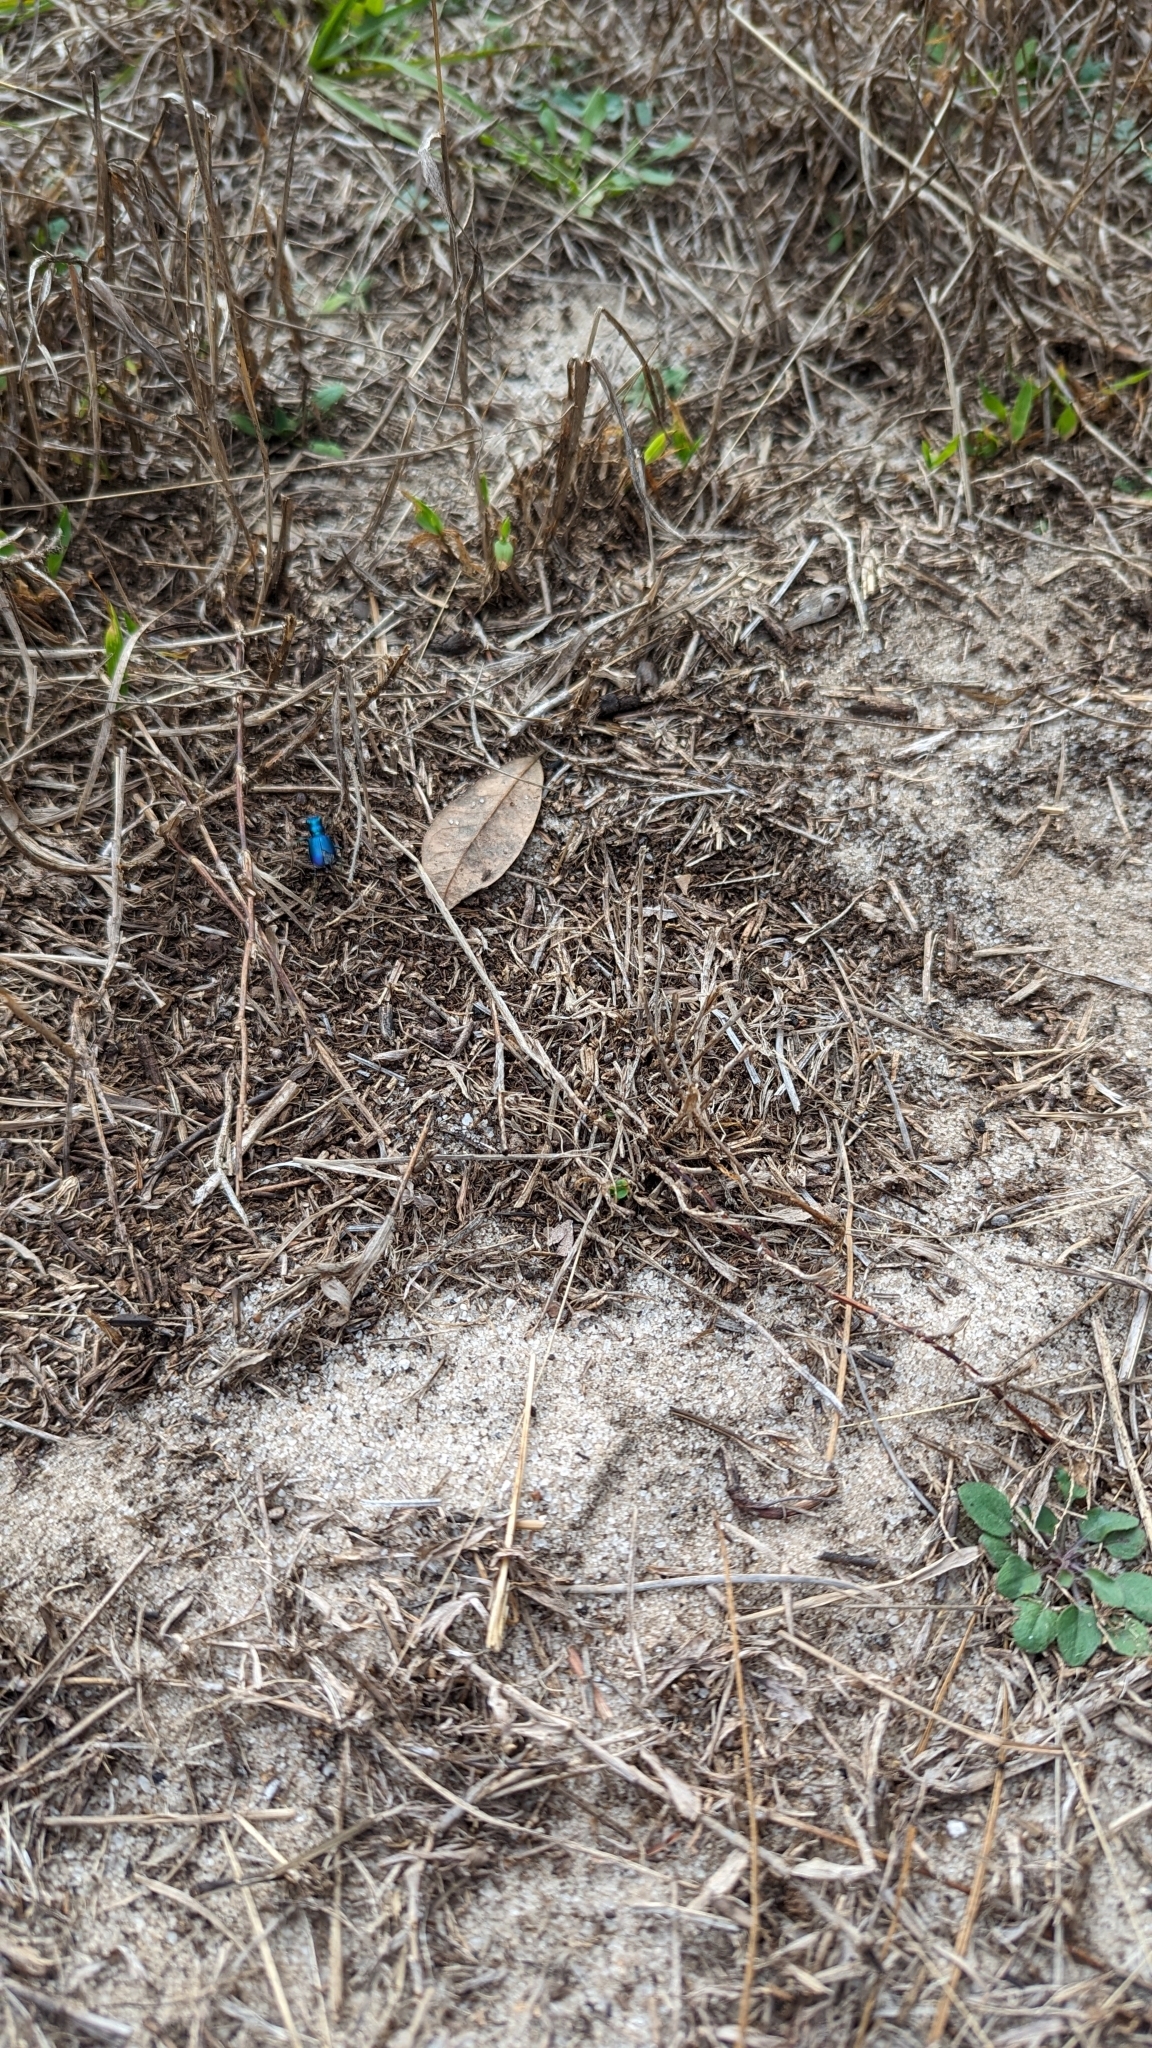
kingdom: Animalia
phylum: Arthropoda
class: Insecta
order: Coleoptera
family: Carabidae
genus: Cicindela
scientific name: Cicindela scutellaris
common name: Festive tiger beetle
